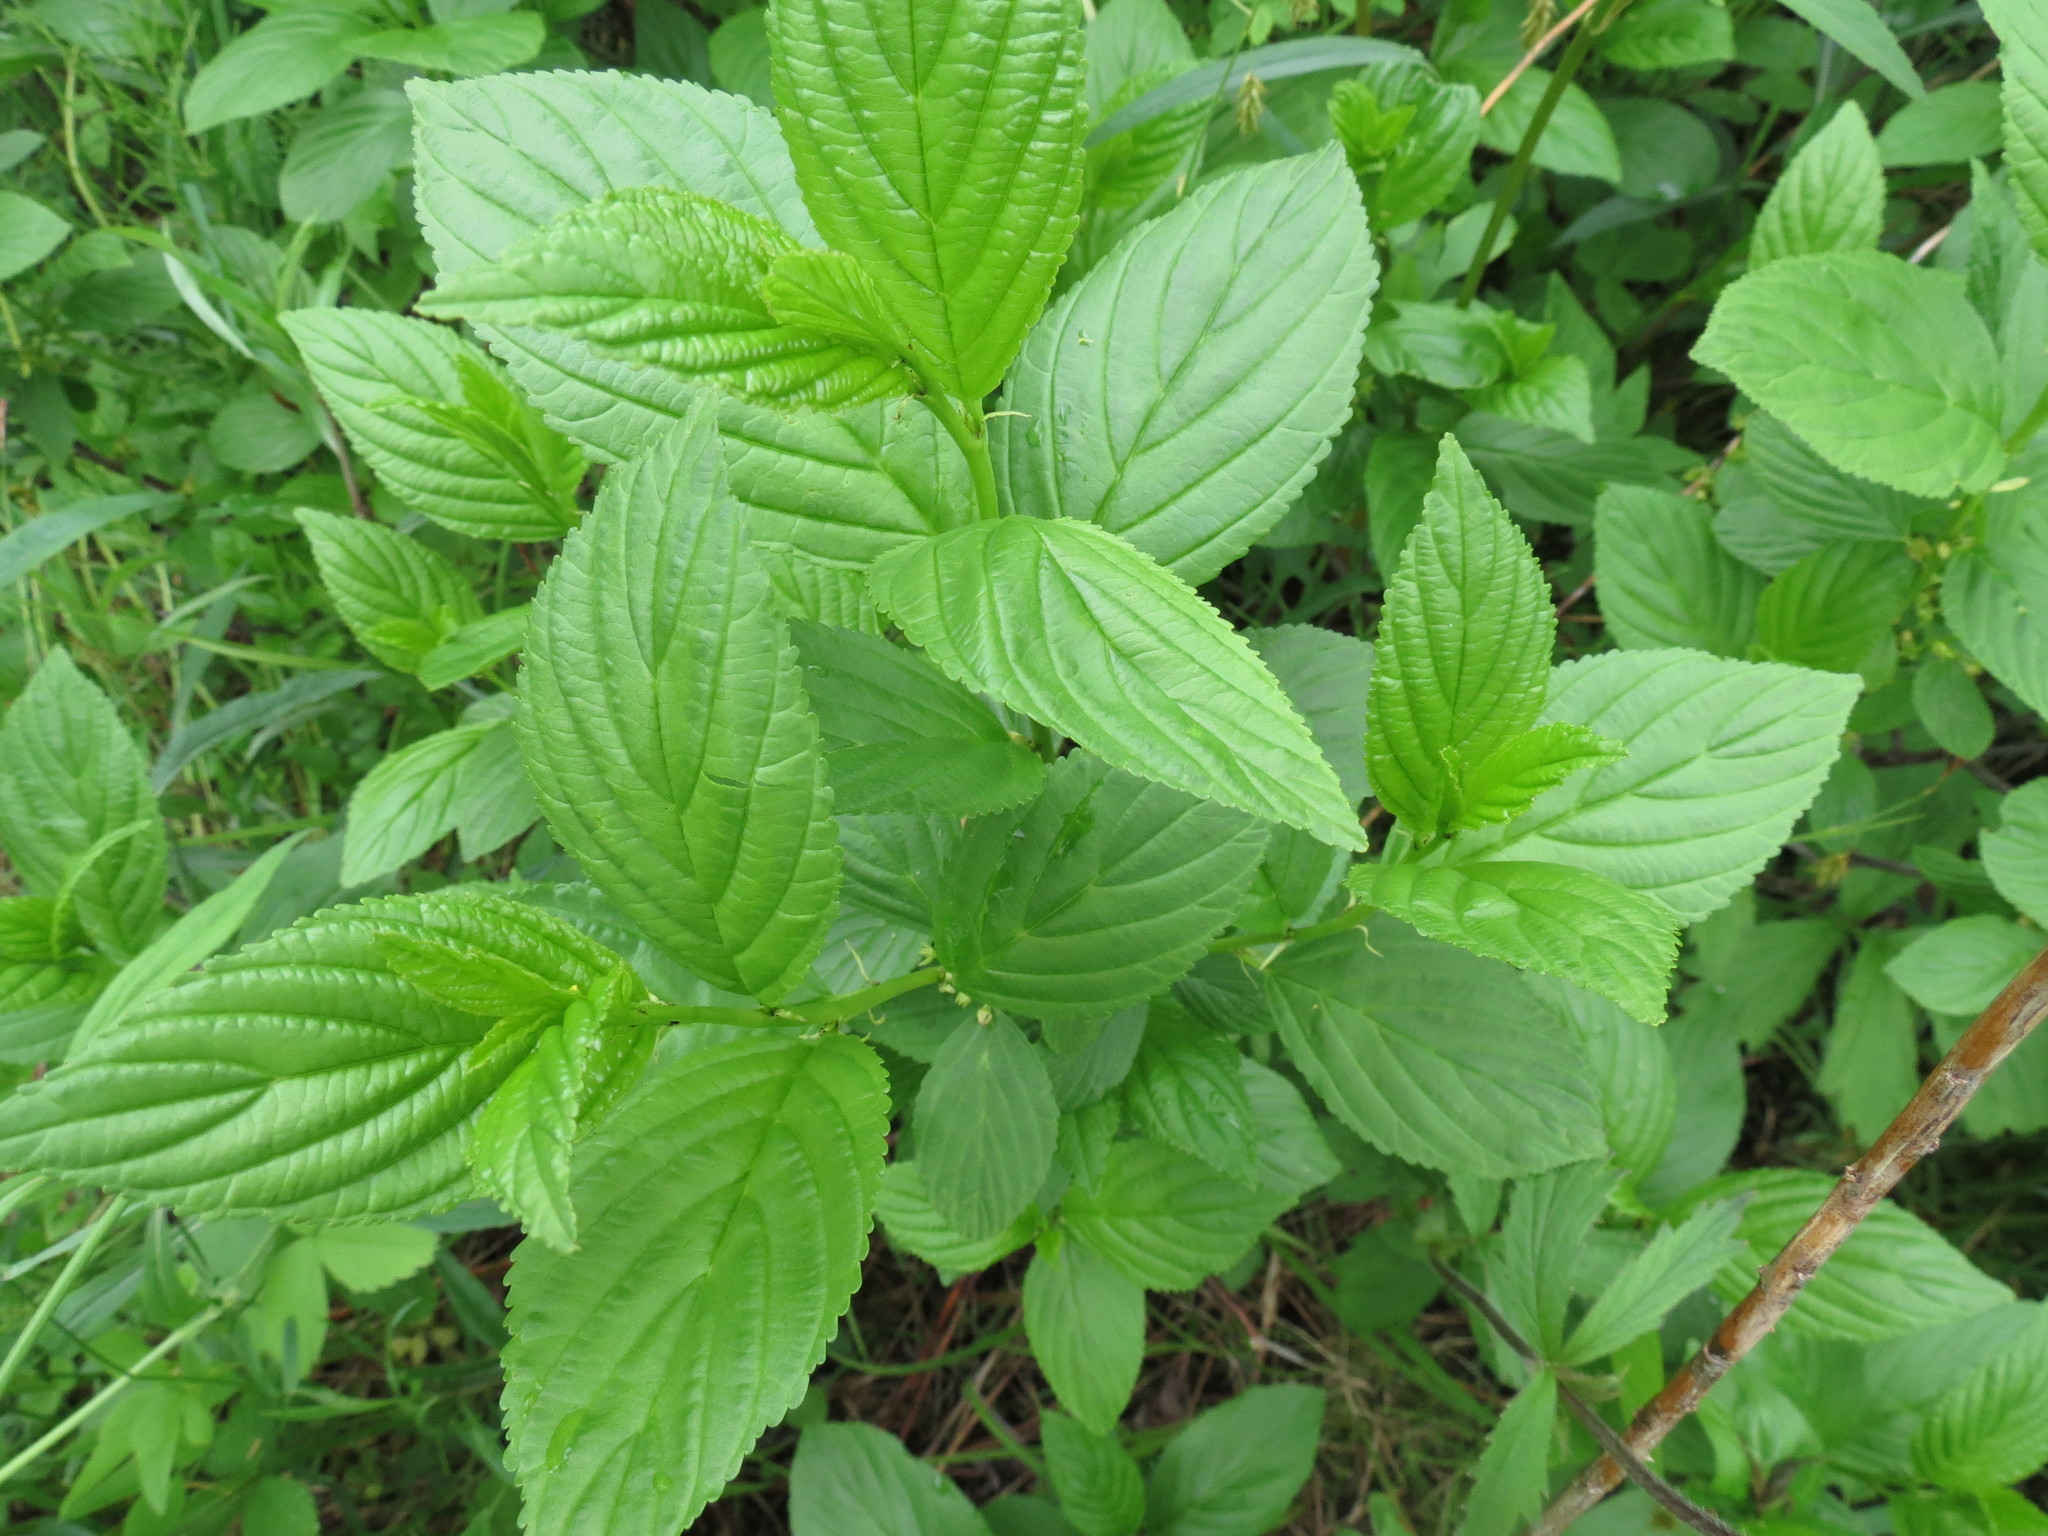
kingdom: Plantae
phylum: Tracheophyta
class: Magnoliopsida
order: Rosales
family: Rhamnaceae
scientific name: Rhamnaceae
